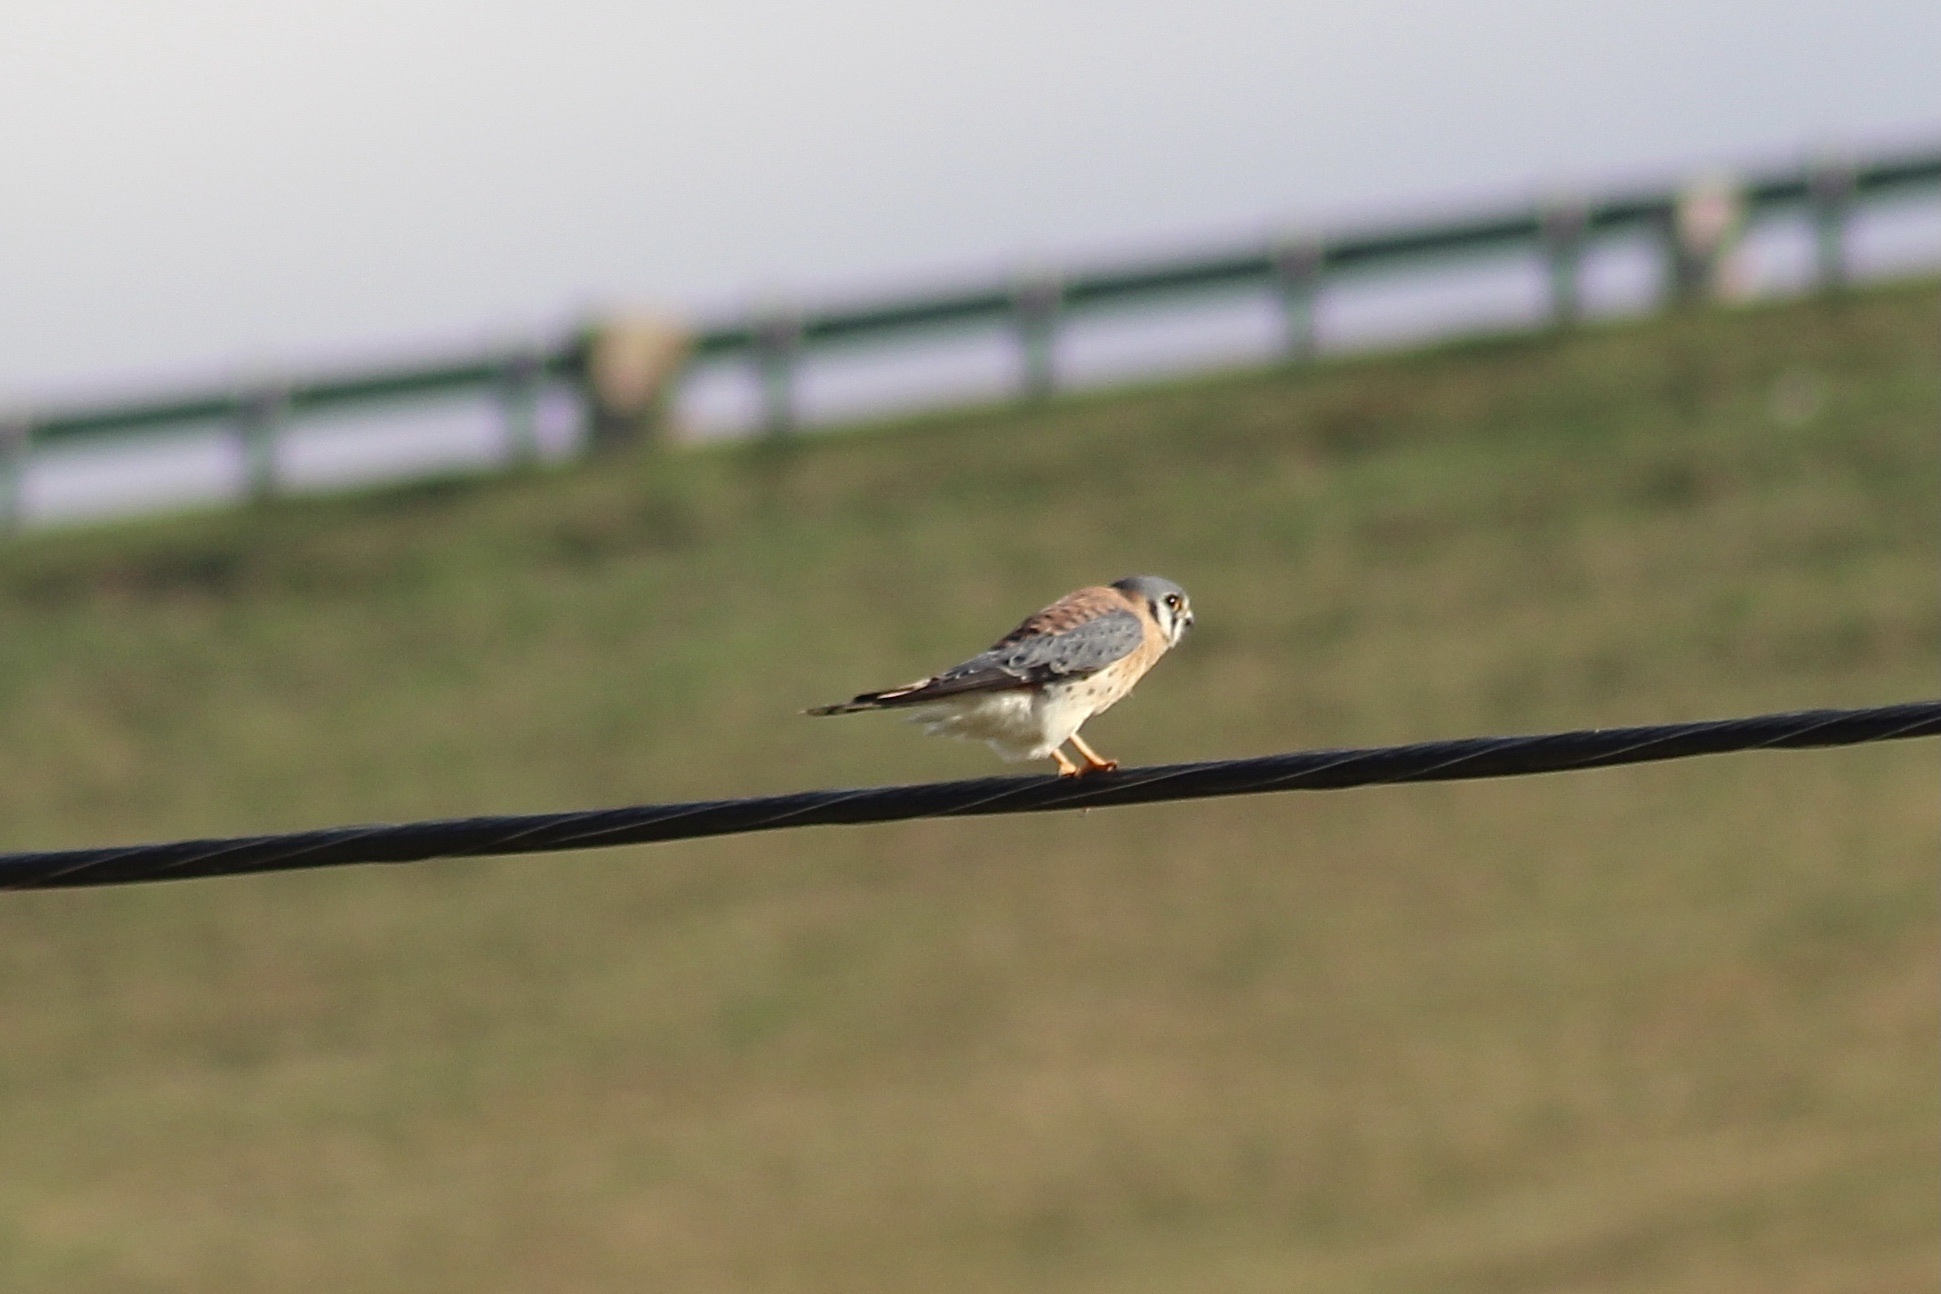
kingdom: Animalia
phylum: Chordata
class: Aves
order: Falconiformes
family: Falconidae
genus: Falco
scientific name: Falco sparverius
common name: American kestrel
